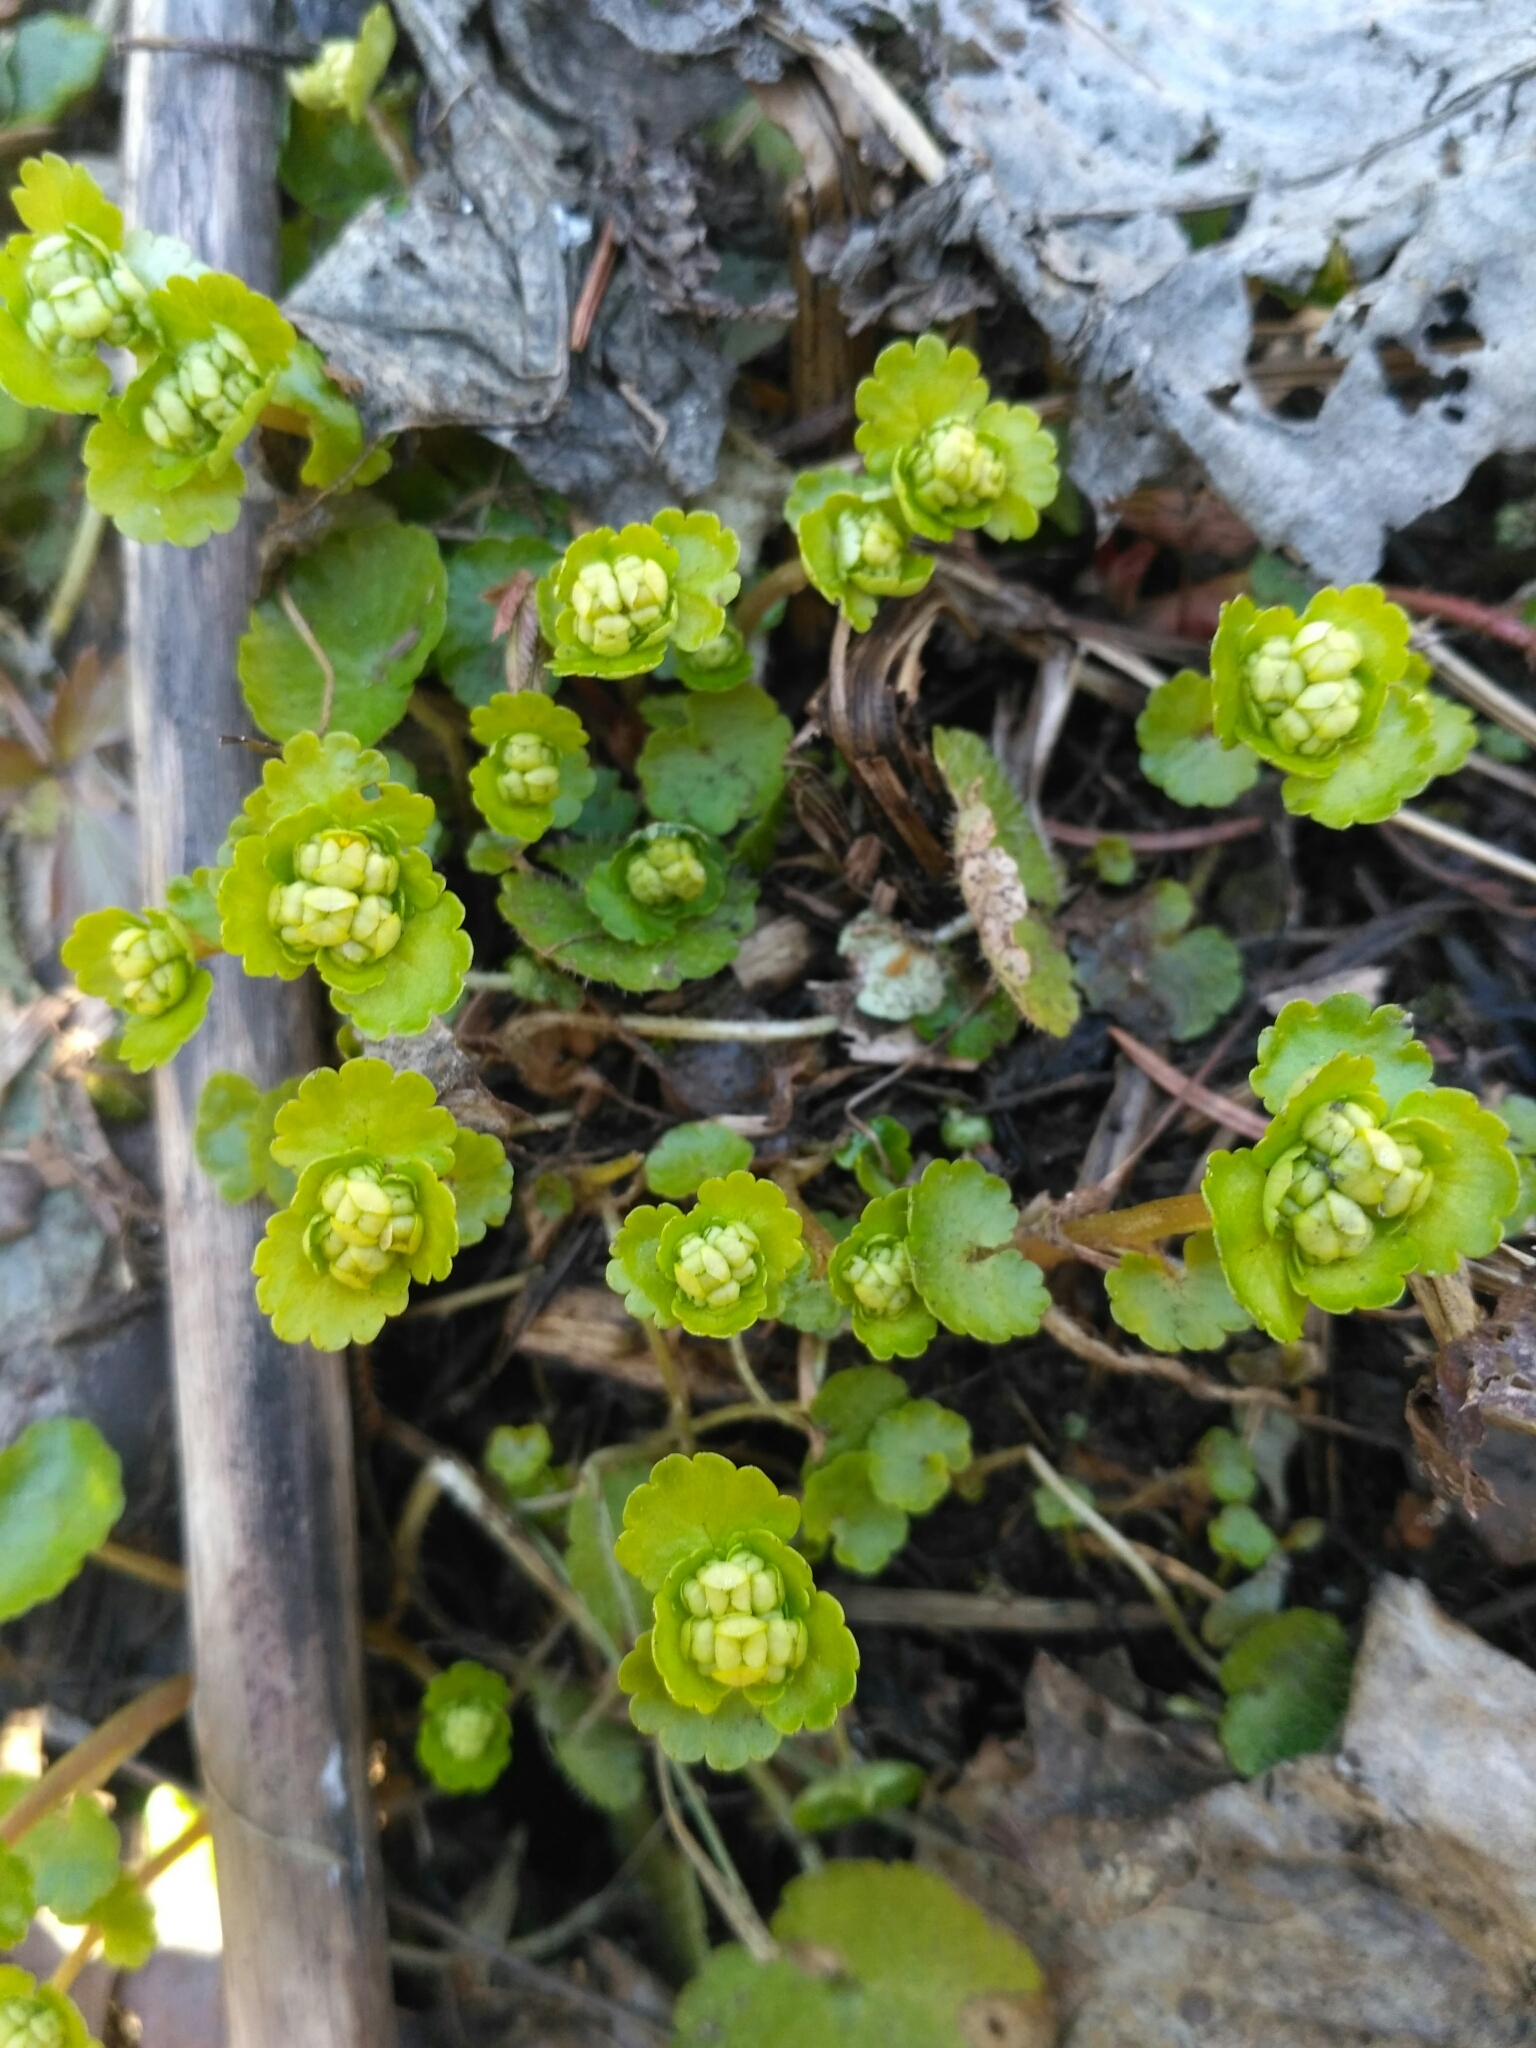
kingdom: Plantae
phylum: Tracheophyta
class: Magnoliopsida
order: Saxifragales
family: Saxifragaceae
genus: Chrysosplenium
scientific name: Chrysosplenium alternifolium
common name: Alternate-leaved golden-saxifrage
